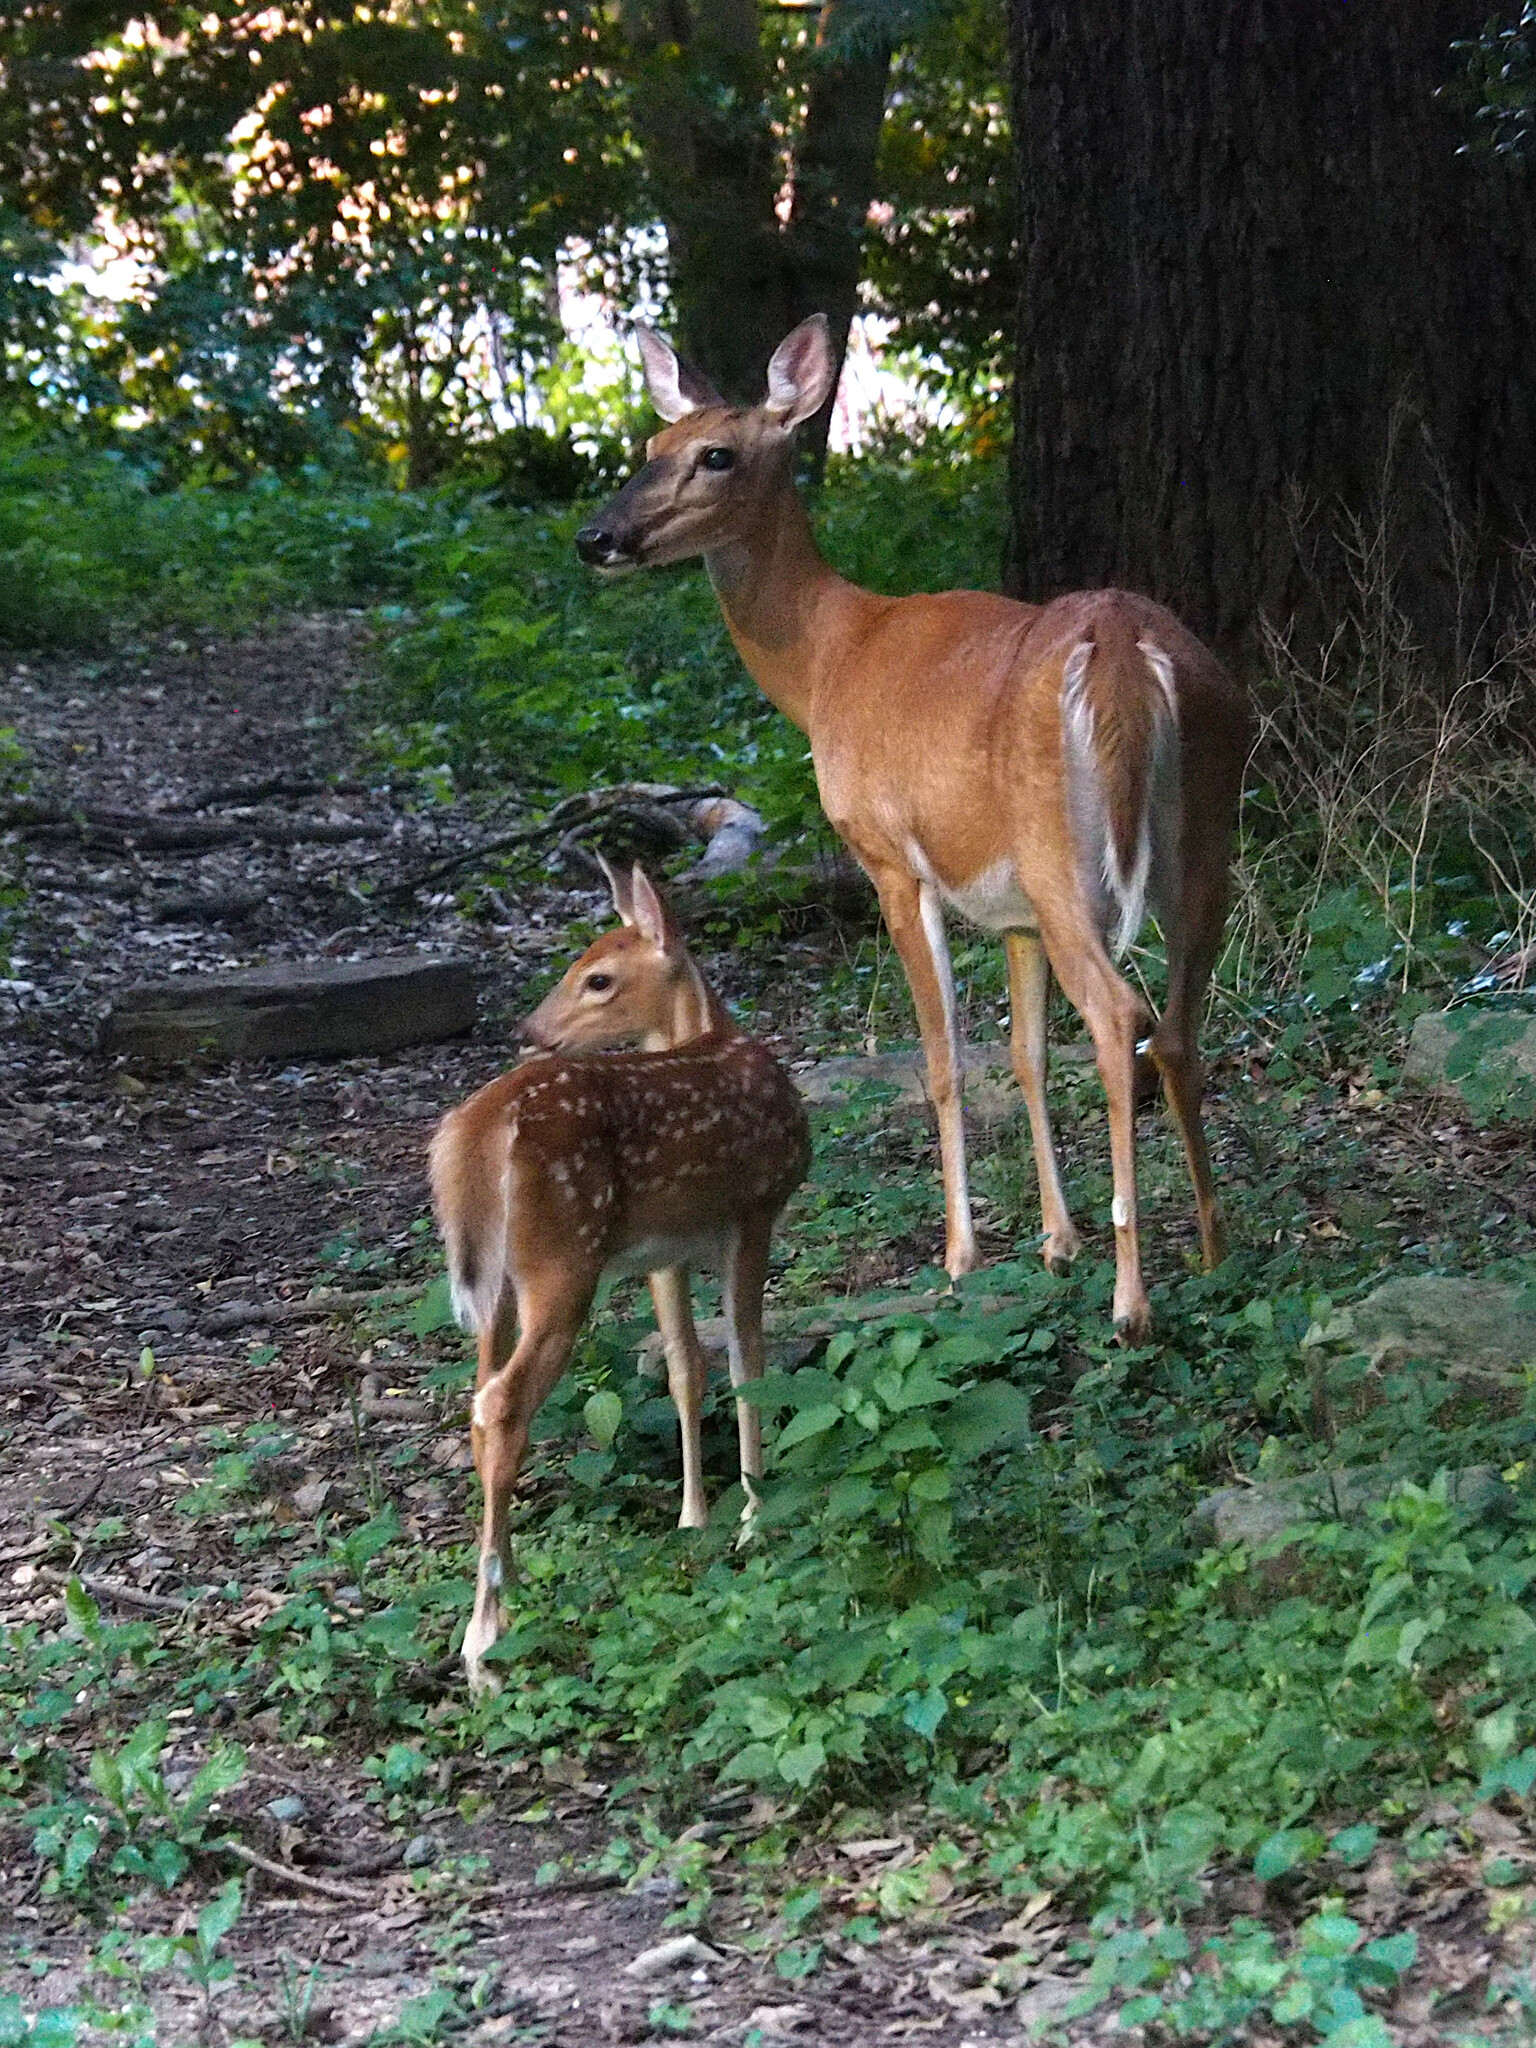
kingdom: Animalia
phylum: Chordata
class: Mammalia
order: Artiodactyla
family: Cervidae
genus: Odocoileus
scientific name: Odocoileus virginianus
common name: White-tailed deer
